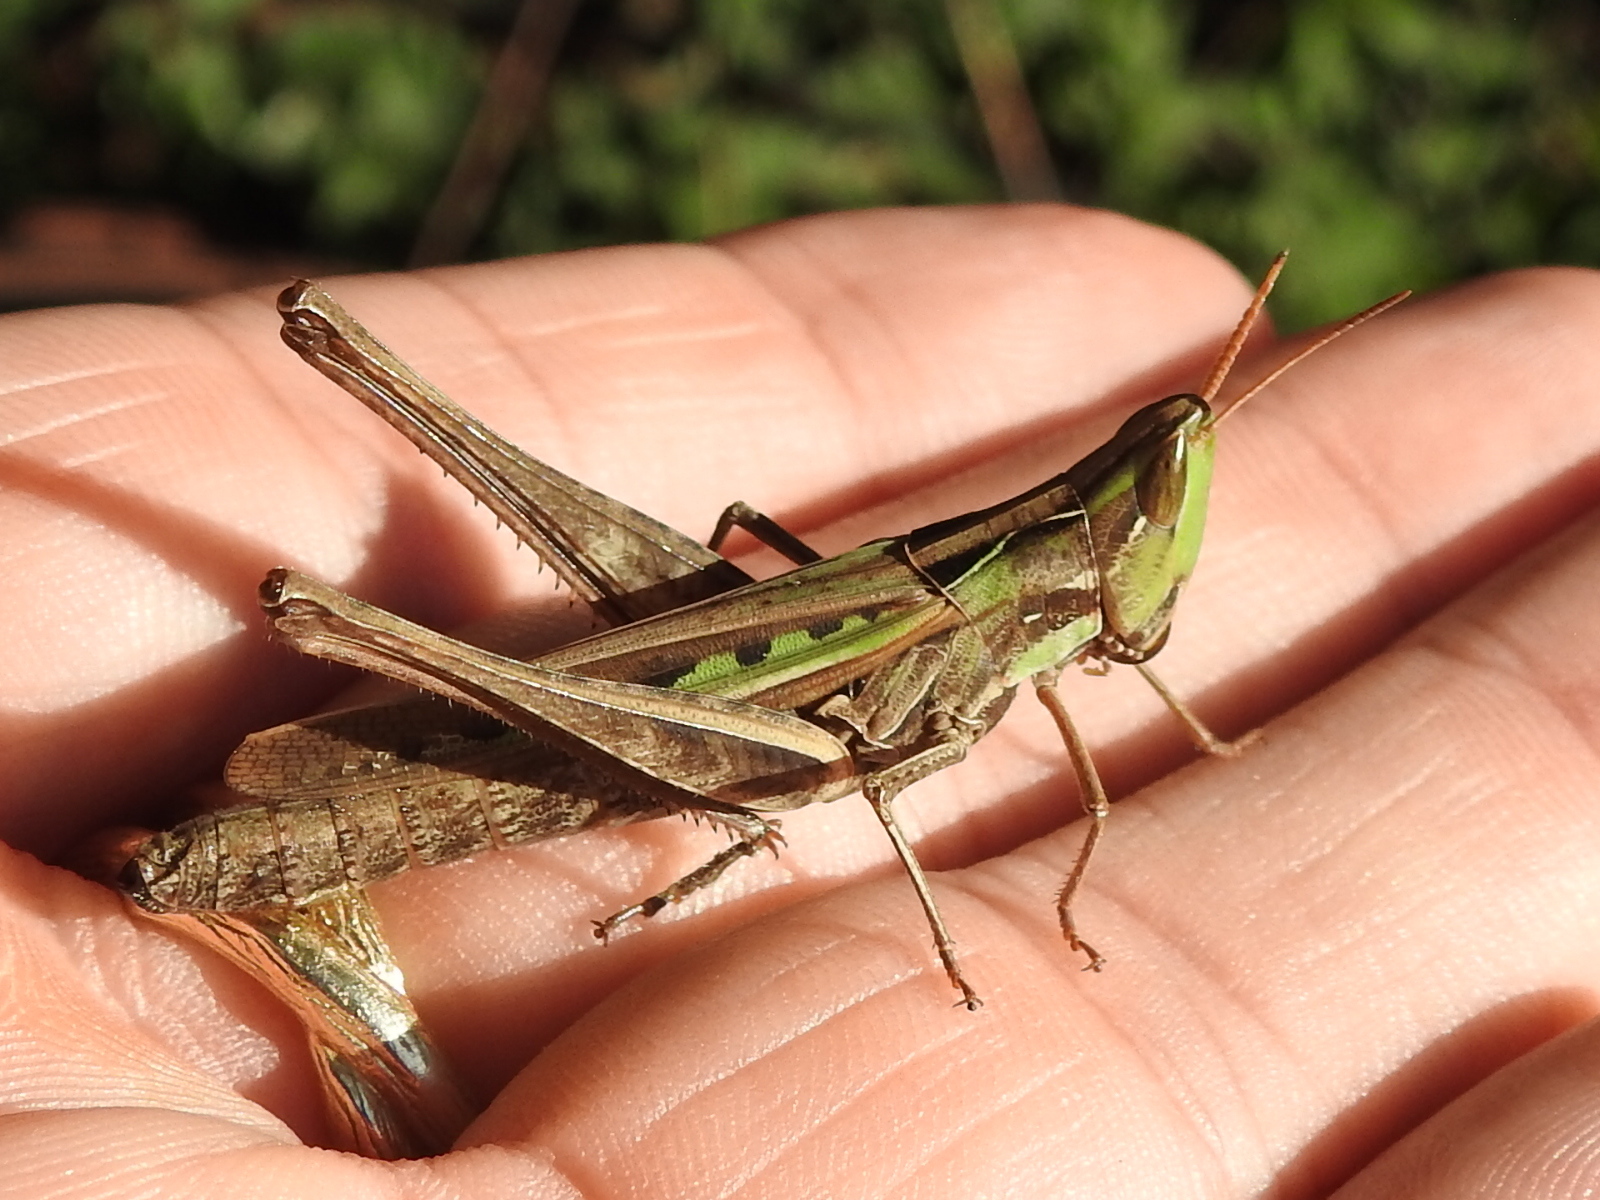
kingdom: Animalia
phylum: Arthropoda
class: Insecta
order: Orthoptera
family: Acrididae
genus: Syrbula
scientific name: Syrbula montezuma
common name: Montezuma's grasshopper
